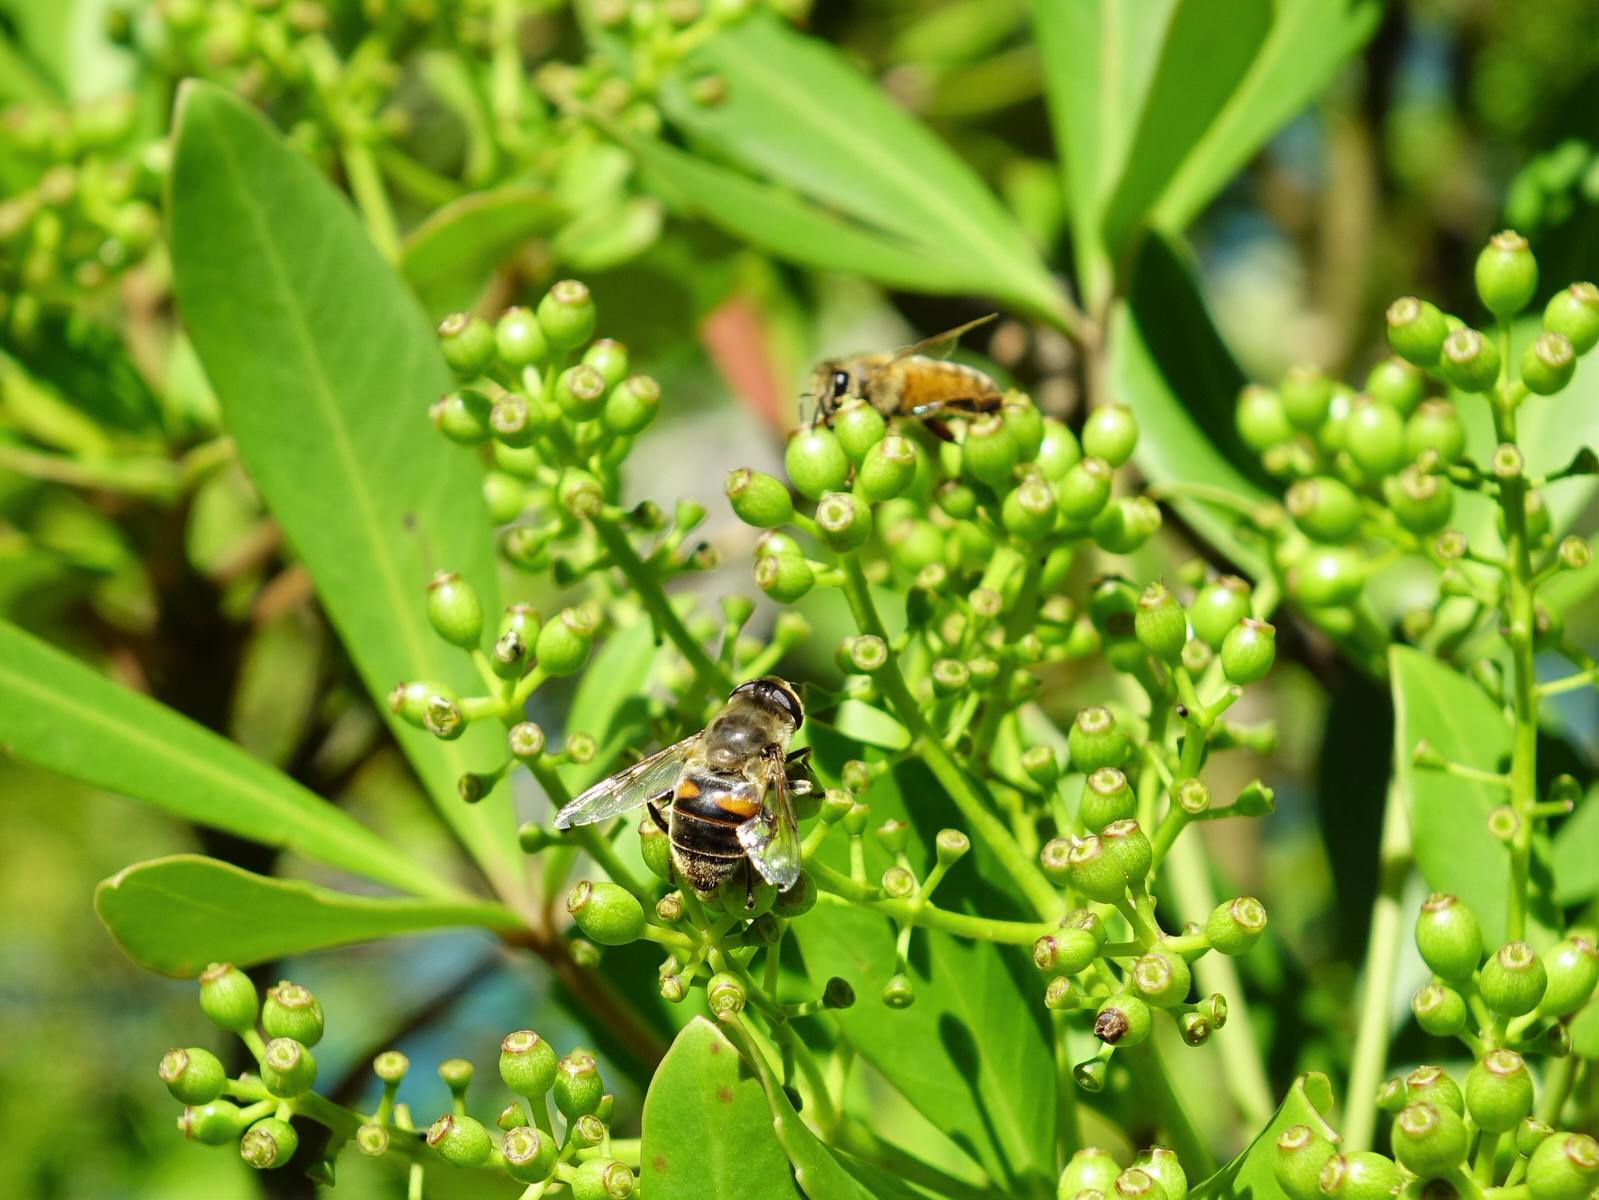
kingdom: Animalia
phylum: Arthropoda
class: Insecta
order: Diptera
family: Syrphidae
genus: Eristalis
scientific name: Eristalis tenax
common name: Drone fly
